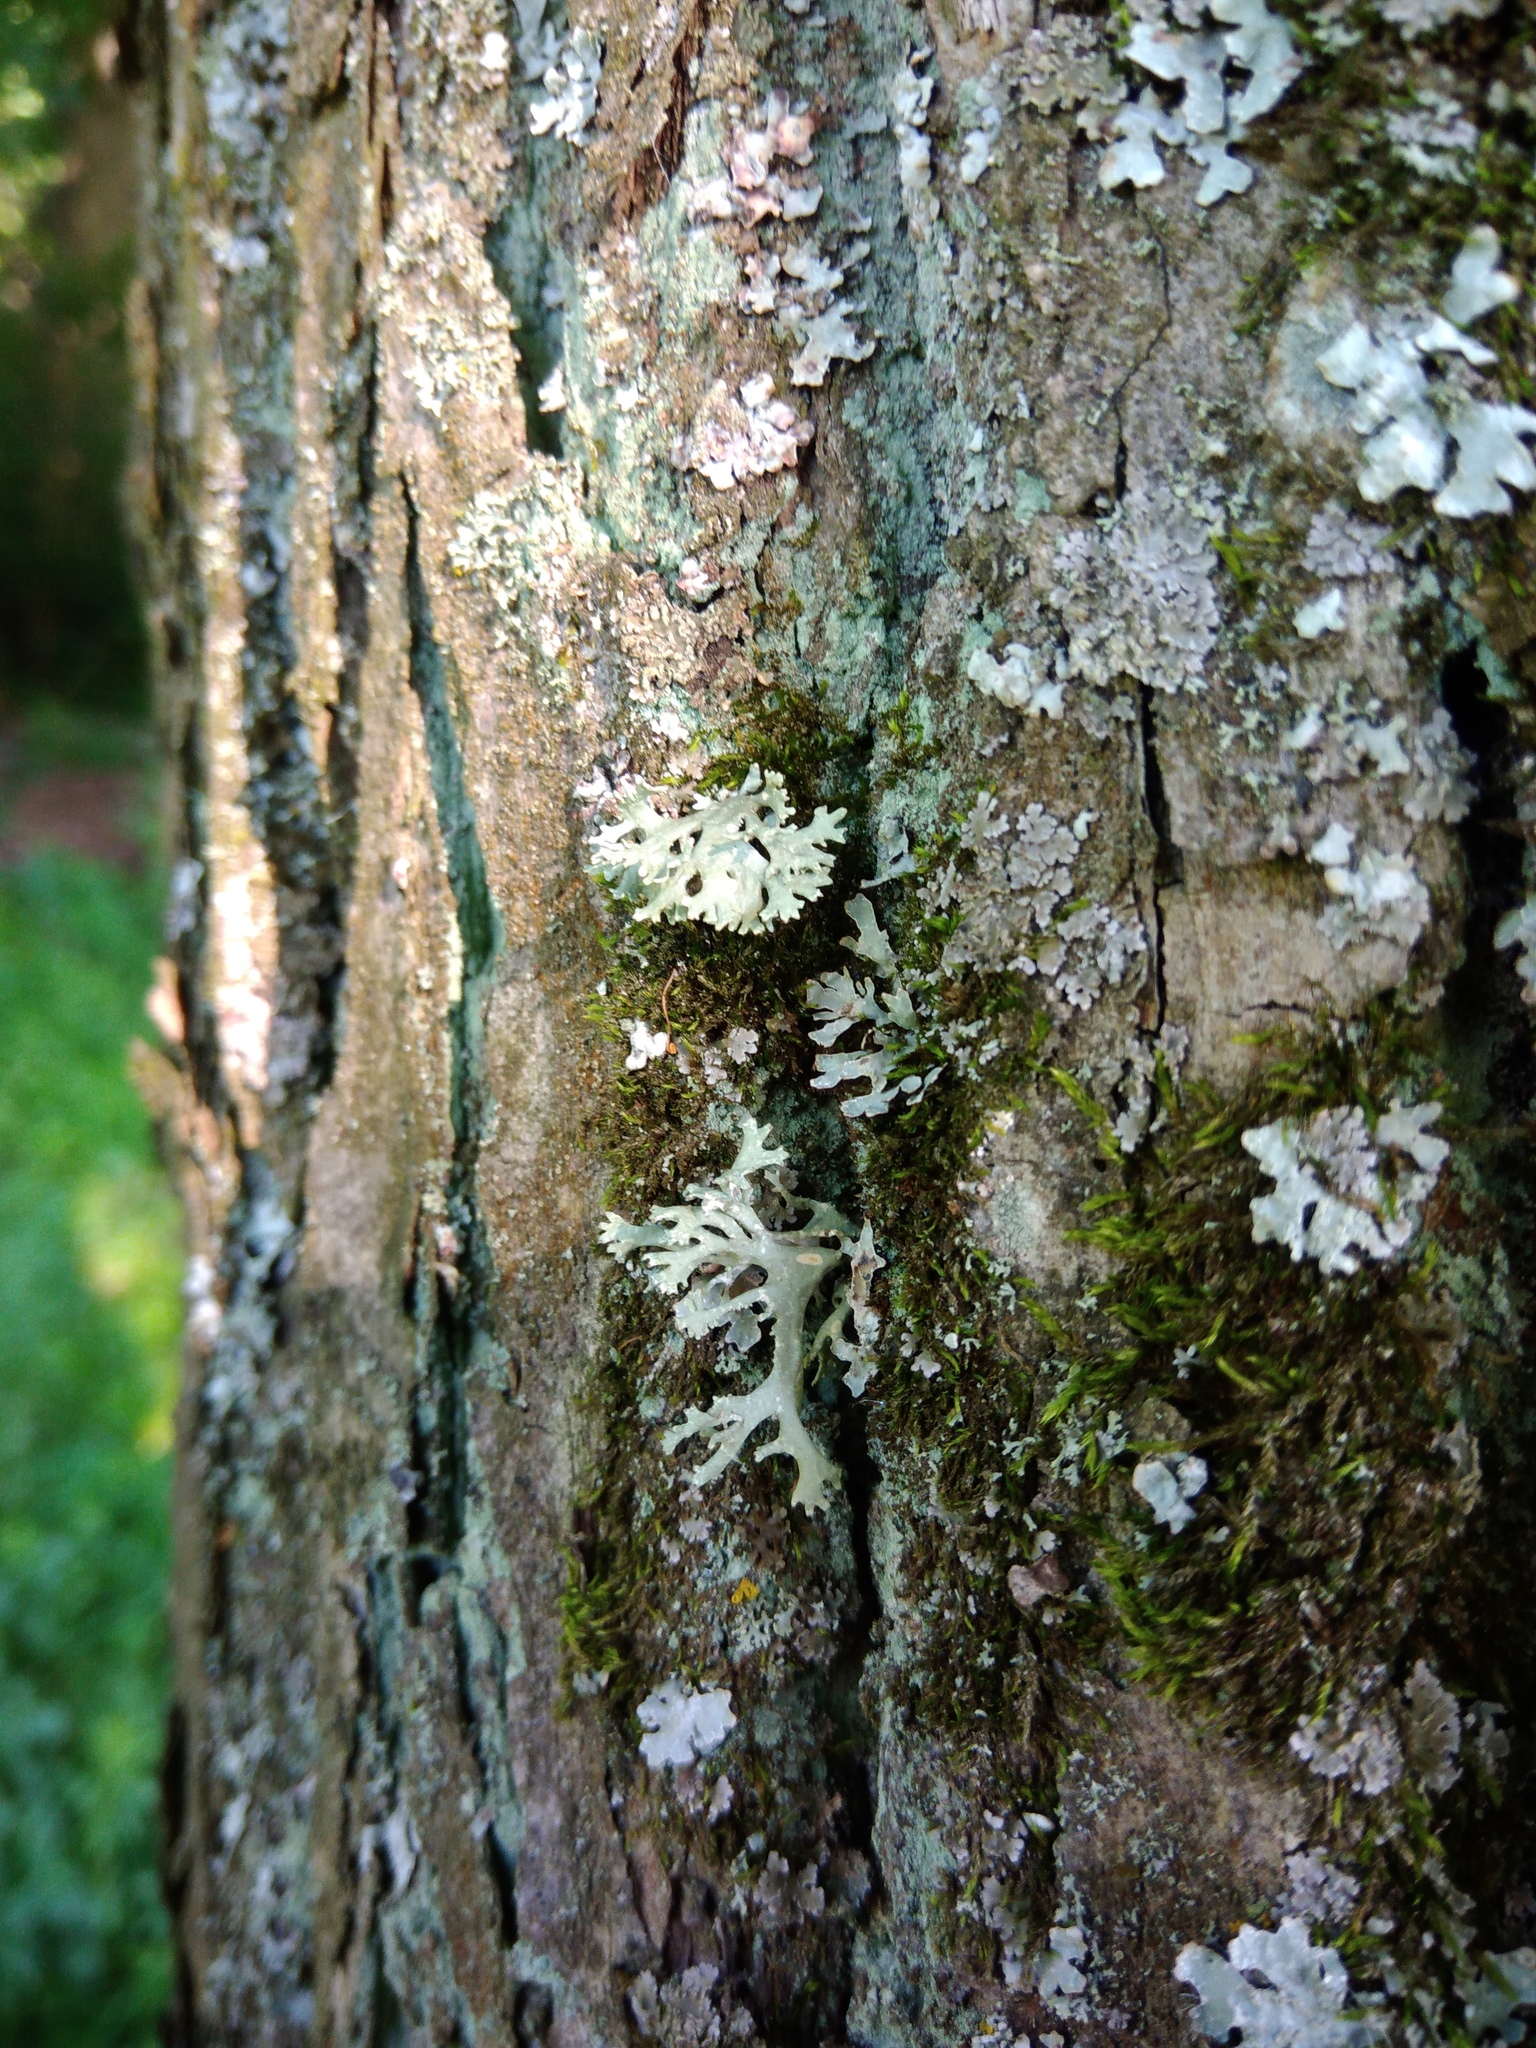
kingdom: Fungi
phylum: Ascomycota
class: Lecanoromycetes
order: Lecanorales
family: Parmeliaceae
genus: Evernia
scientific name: Evernia prunastri
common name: Oak moss
